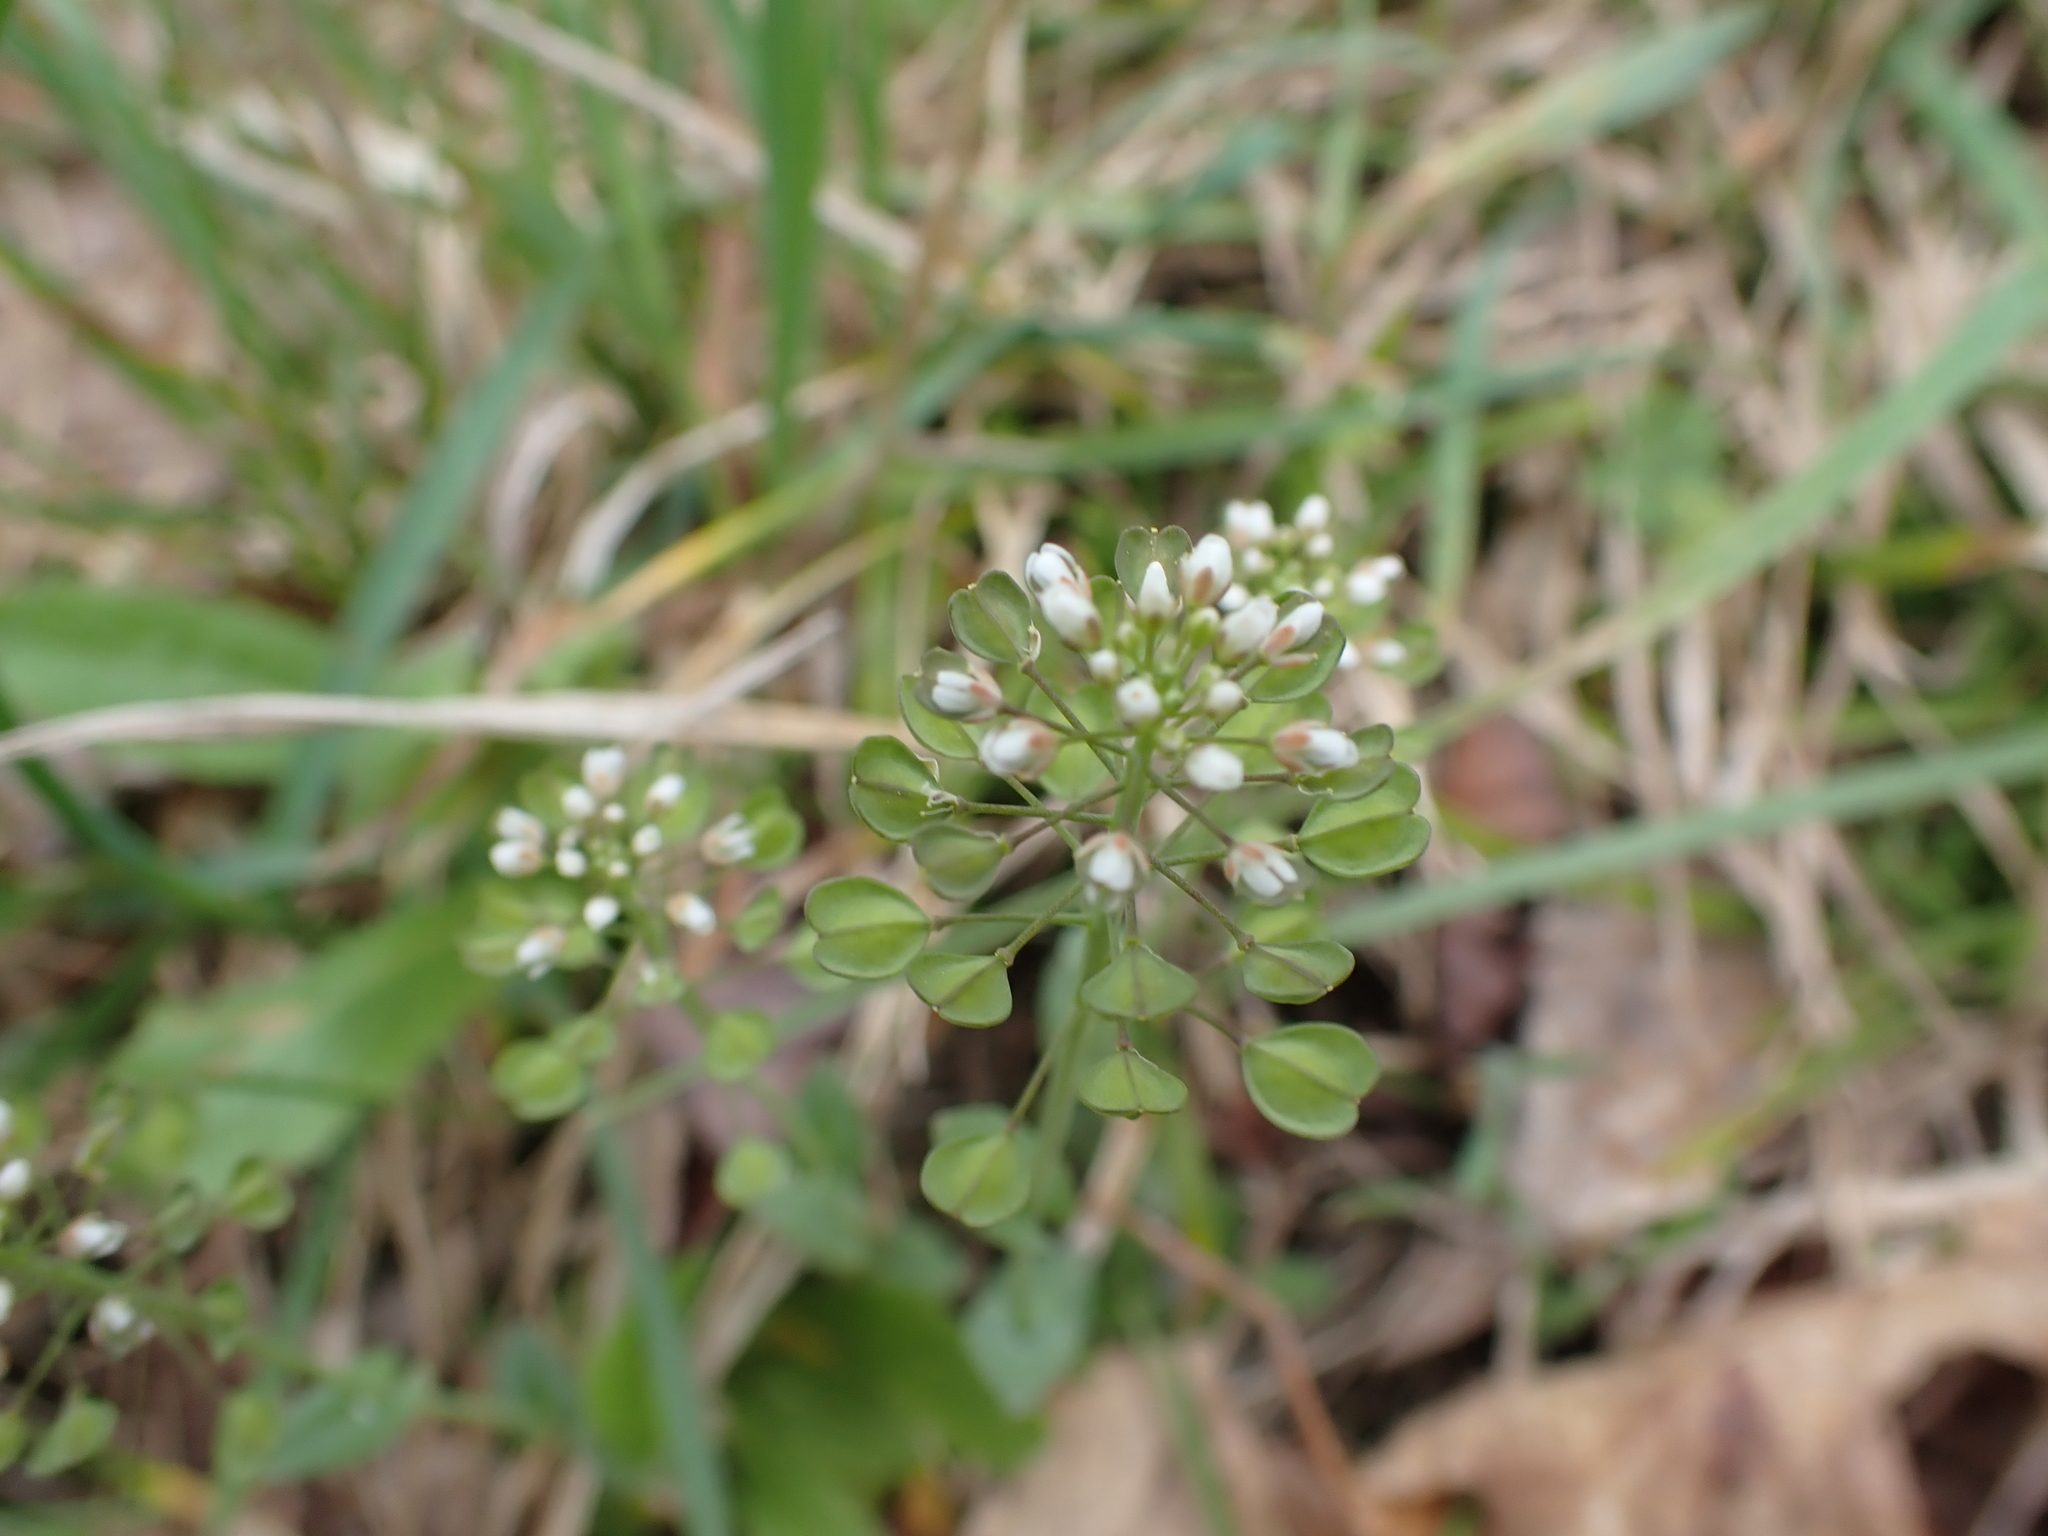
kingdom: Plantae
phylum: Tracheophyta
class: Magnoliopsida
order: Brassicales
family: Brassicaceae
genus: Noccaea
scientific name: Noccaea perfoliata
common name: Perfoliate pennycress
